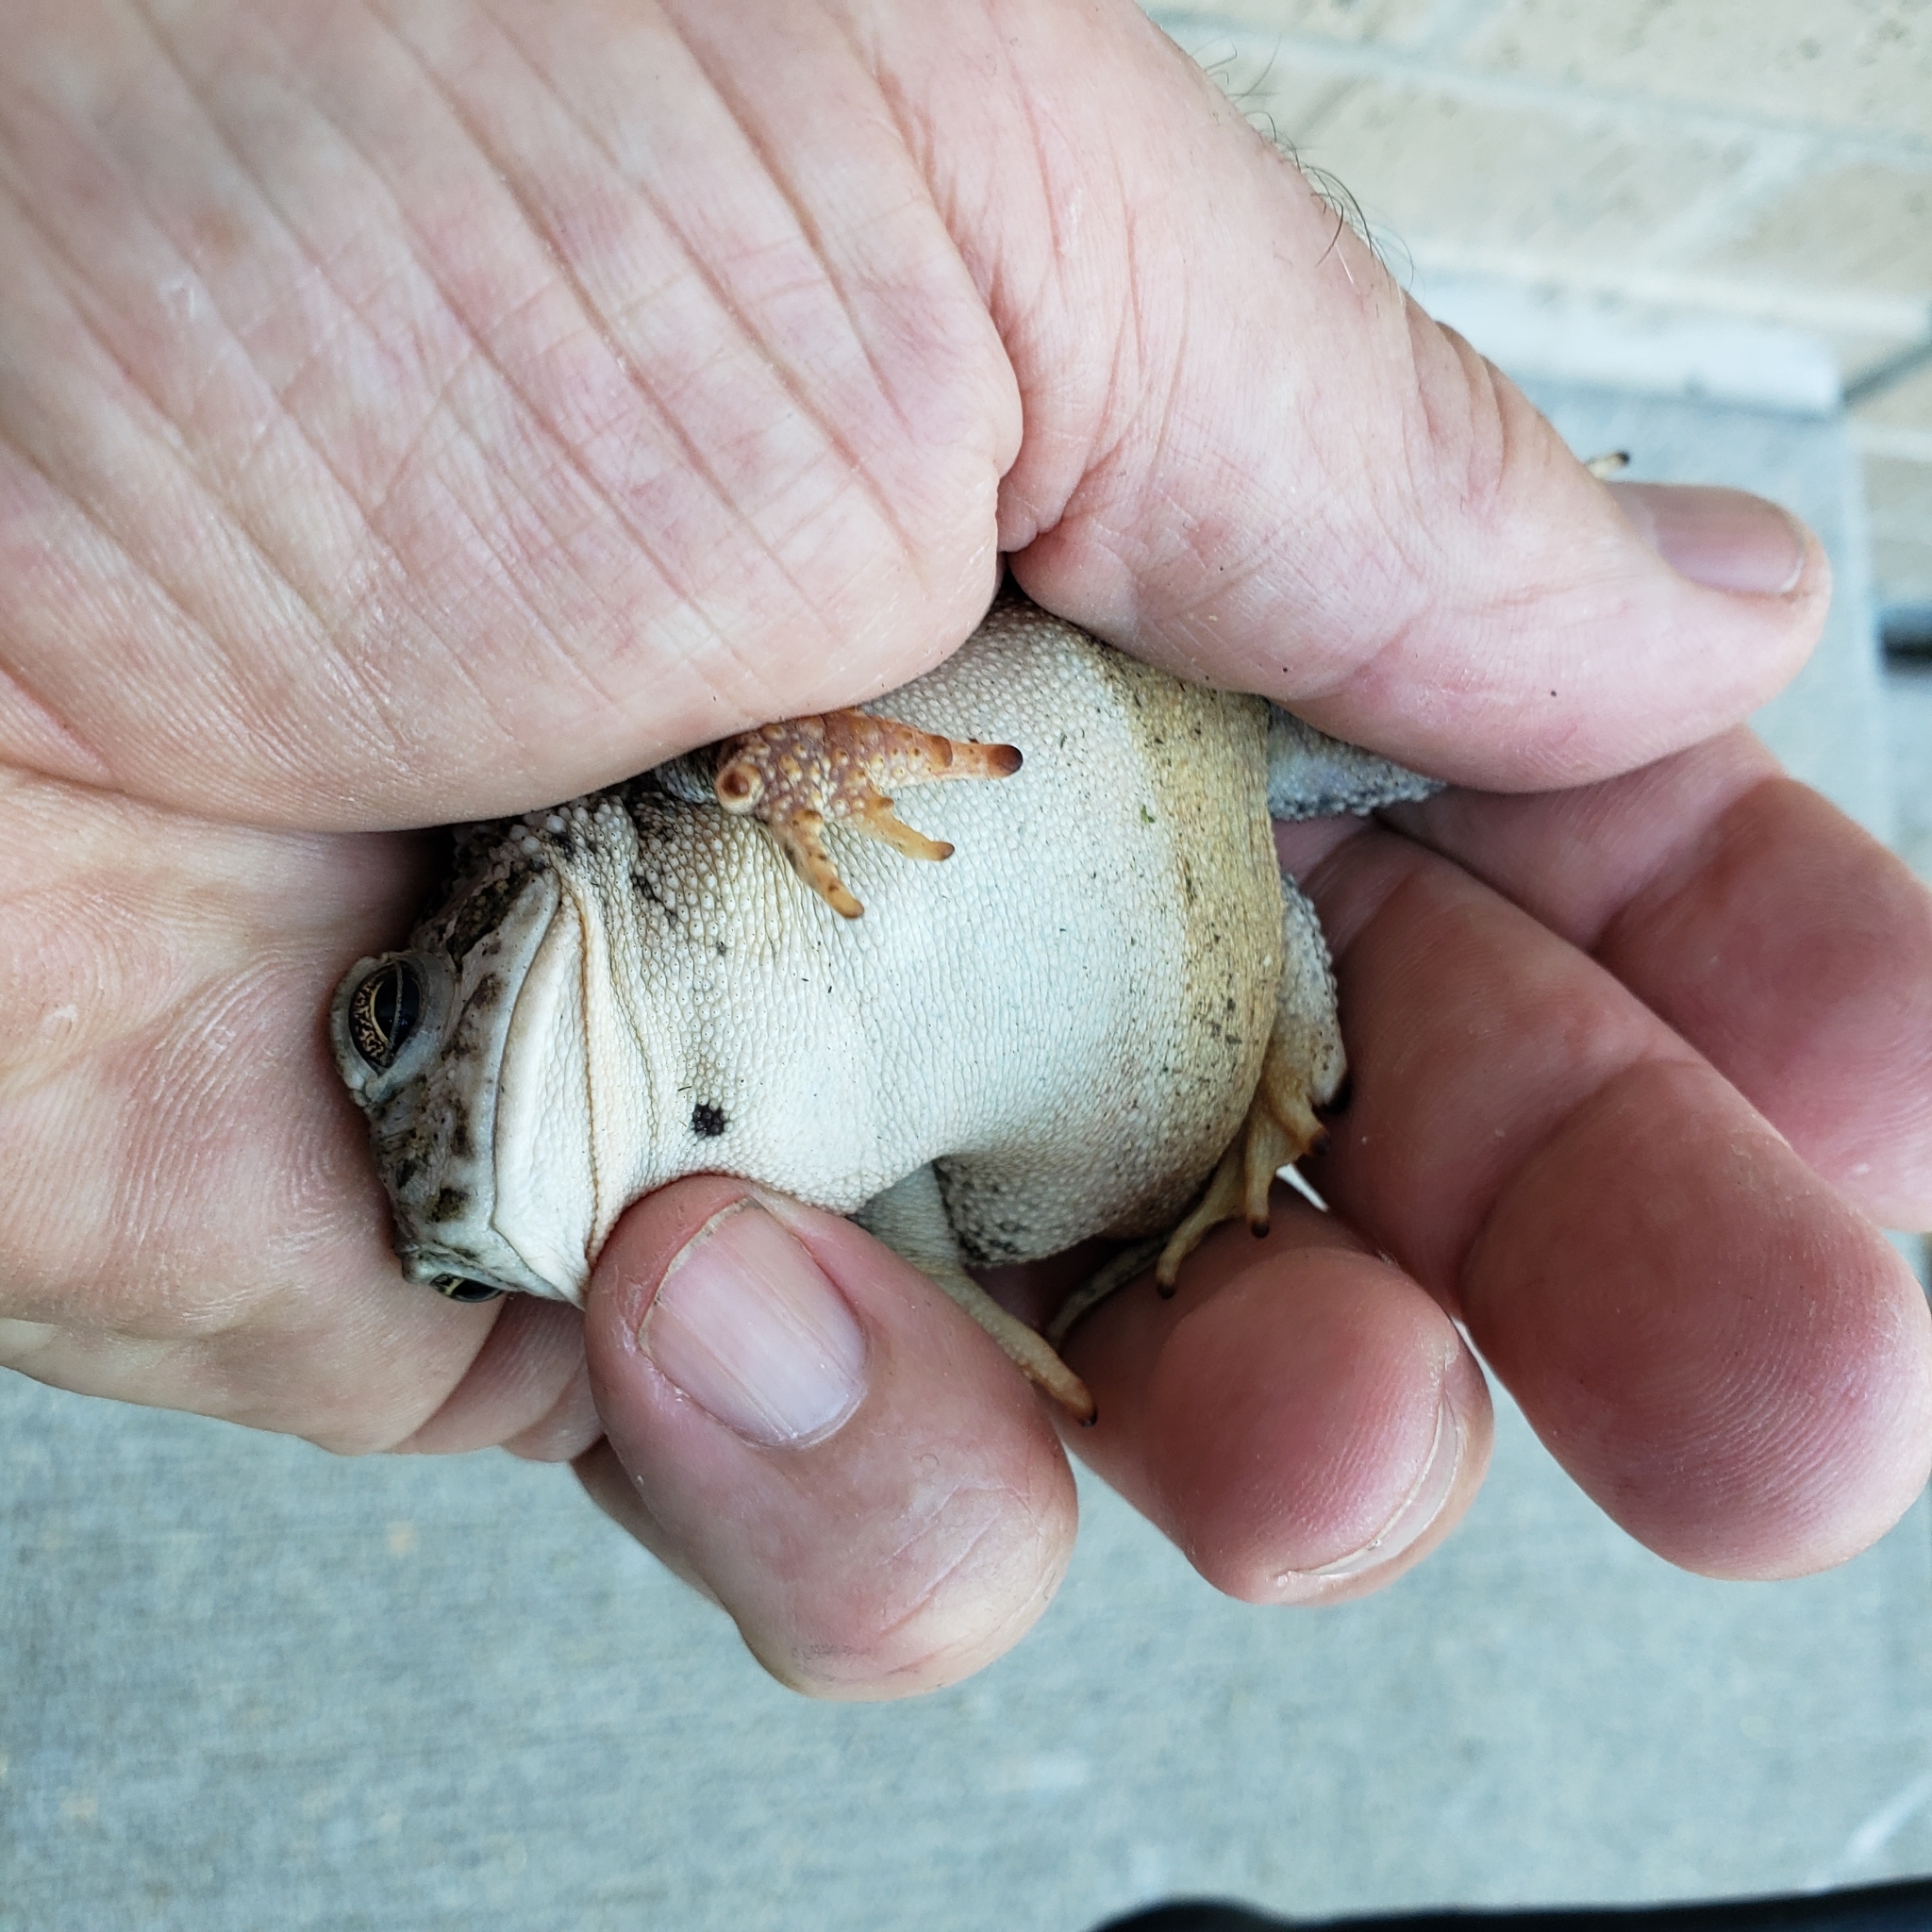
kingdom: Animalia
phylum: Chordata
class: Amphibia
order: Anura
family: Bufonidae
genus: Anaxyrus
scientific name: Anaxyrus woodhousii
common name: Woodhouse's toad
